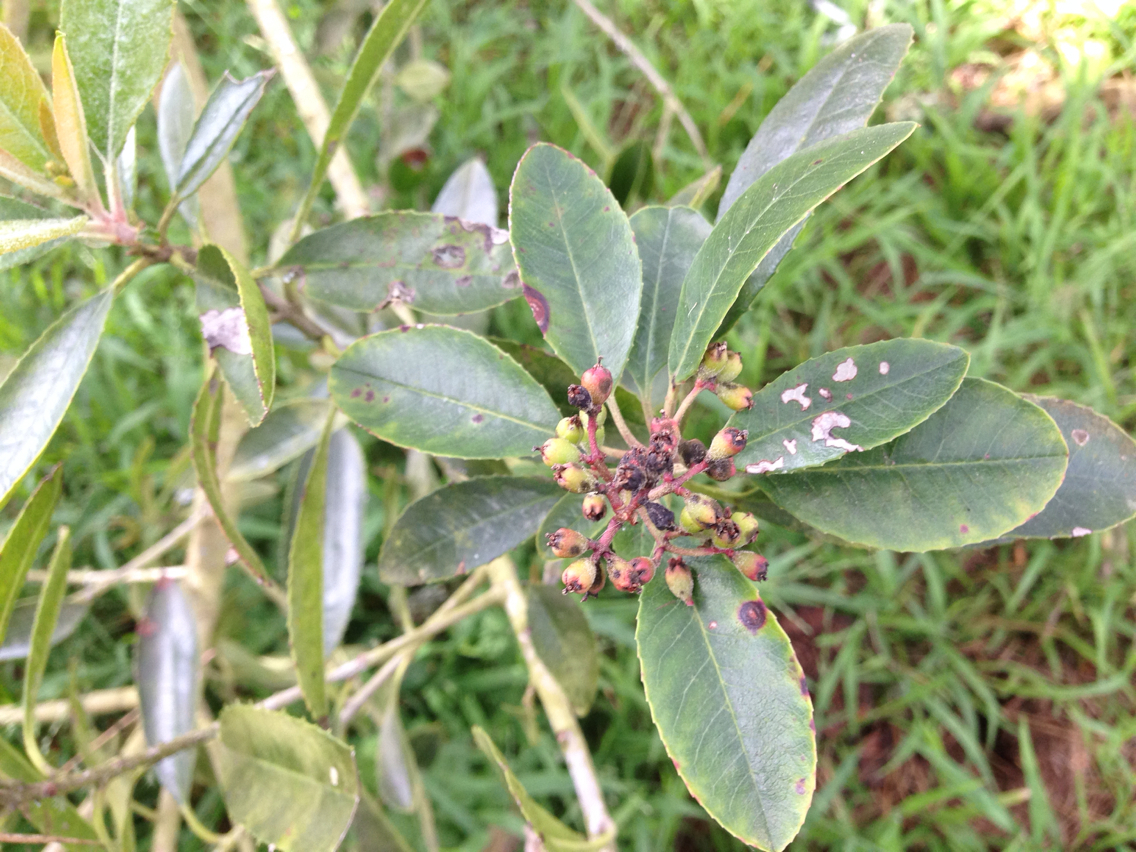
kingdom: Plantae
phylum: Tracheophyta
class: Magnoliopsida
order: Rosales
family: Rosaceae
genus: Heteromeles
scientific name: Heteromeles arbutifolia
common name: California-holly
